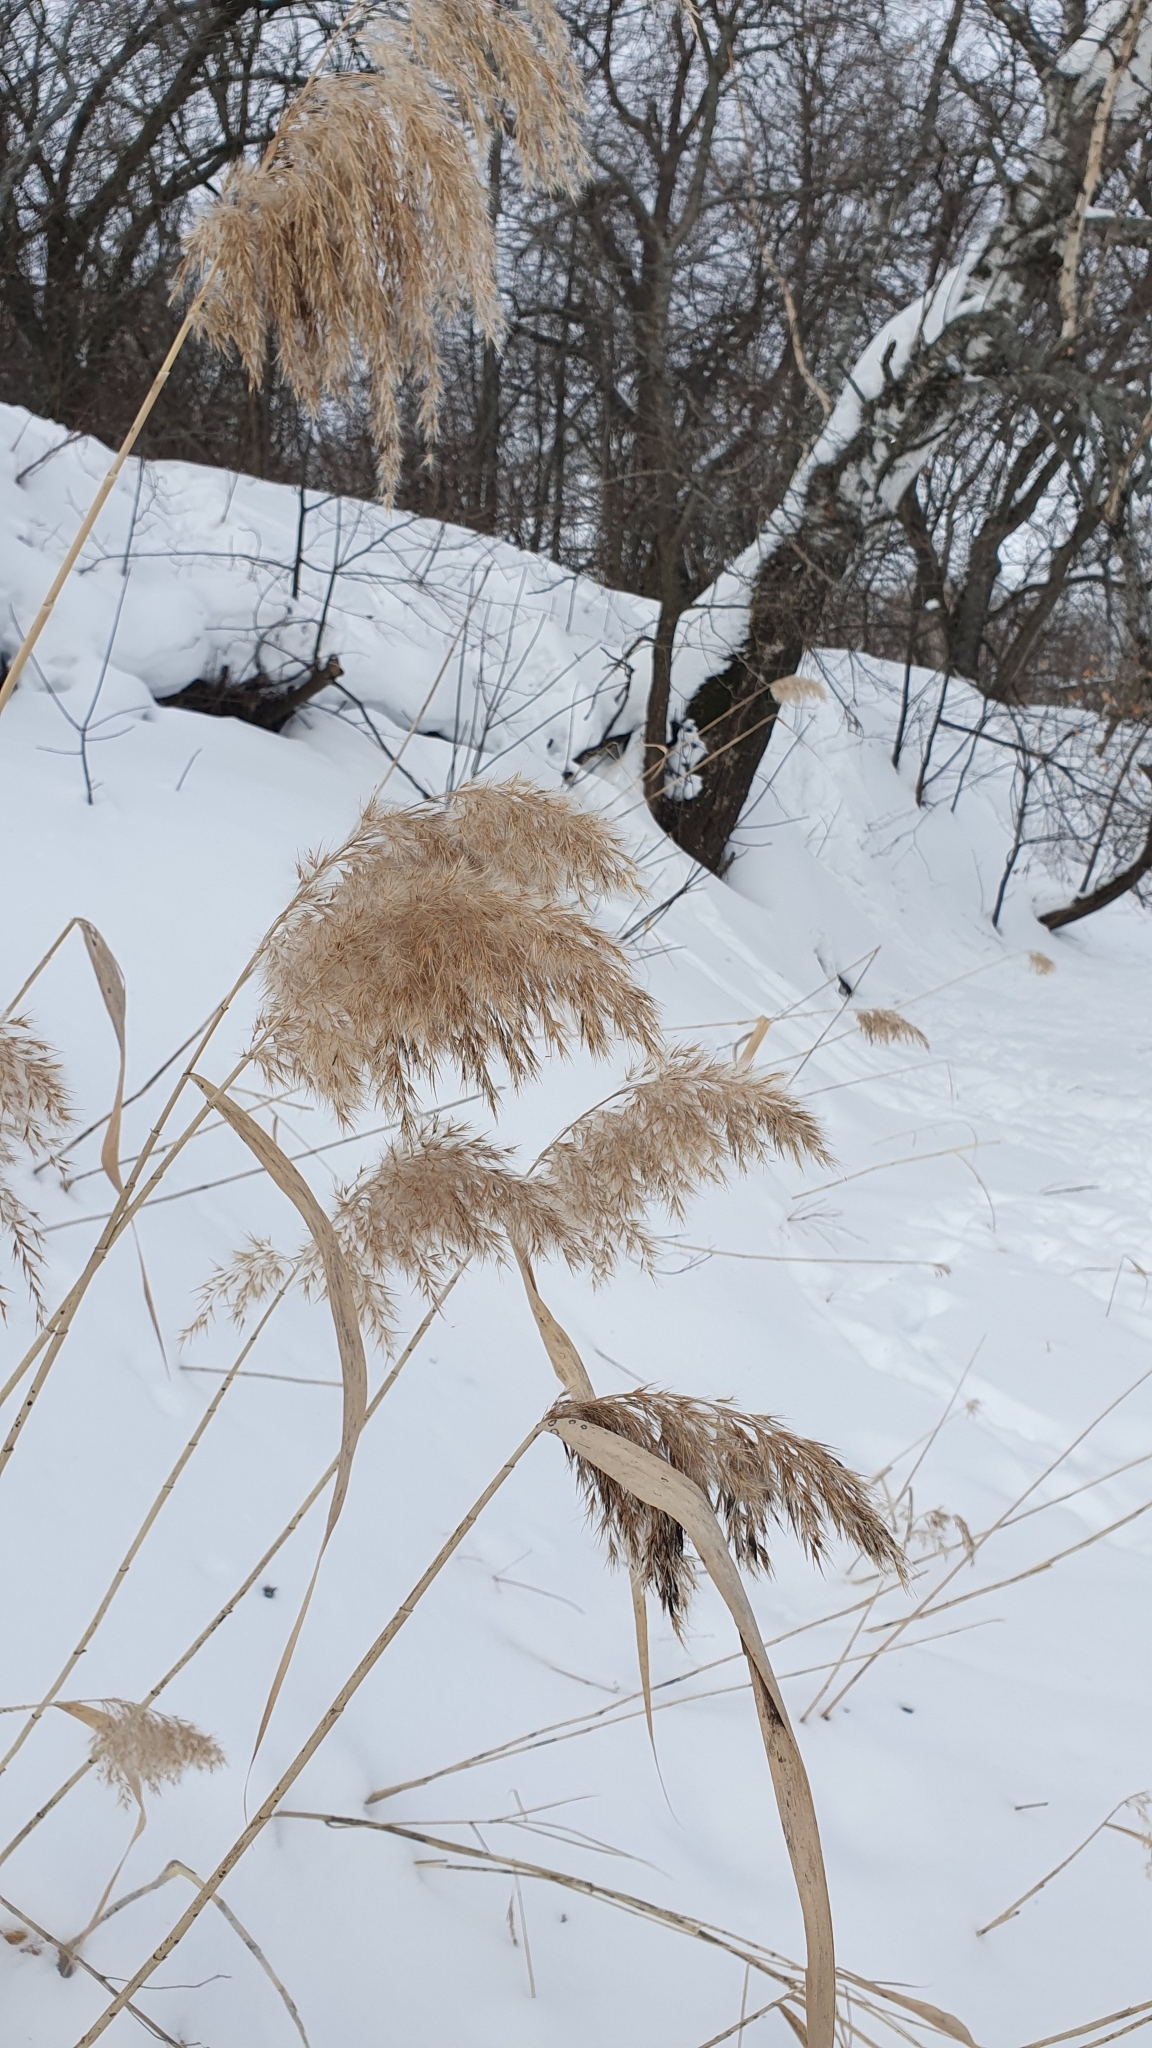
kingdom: Plantae
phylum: Tracheophyta
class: Liliopsida
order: Poales
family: Poaceae
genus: Phragmites
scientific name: Phragmites australis
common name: Common reed
